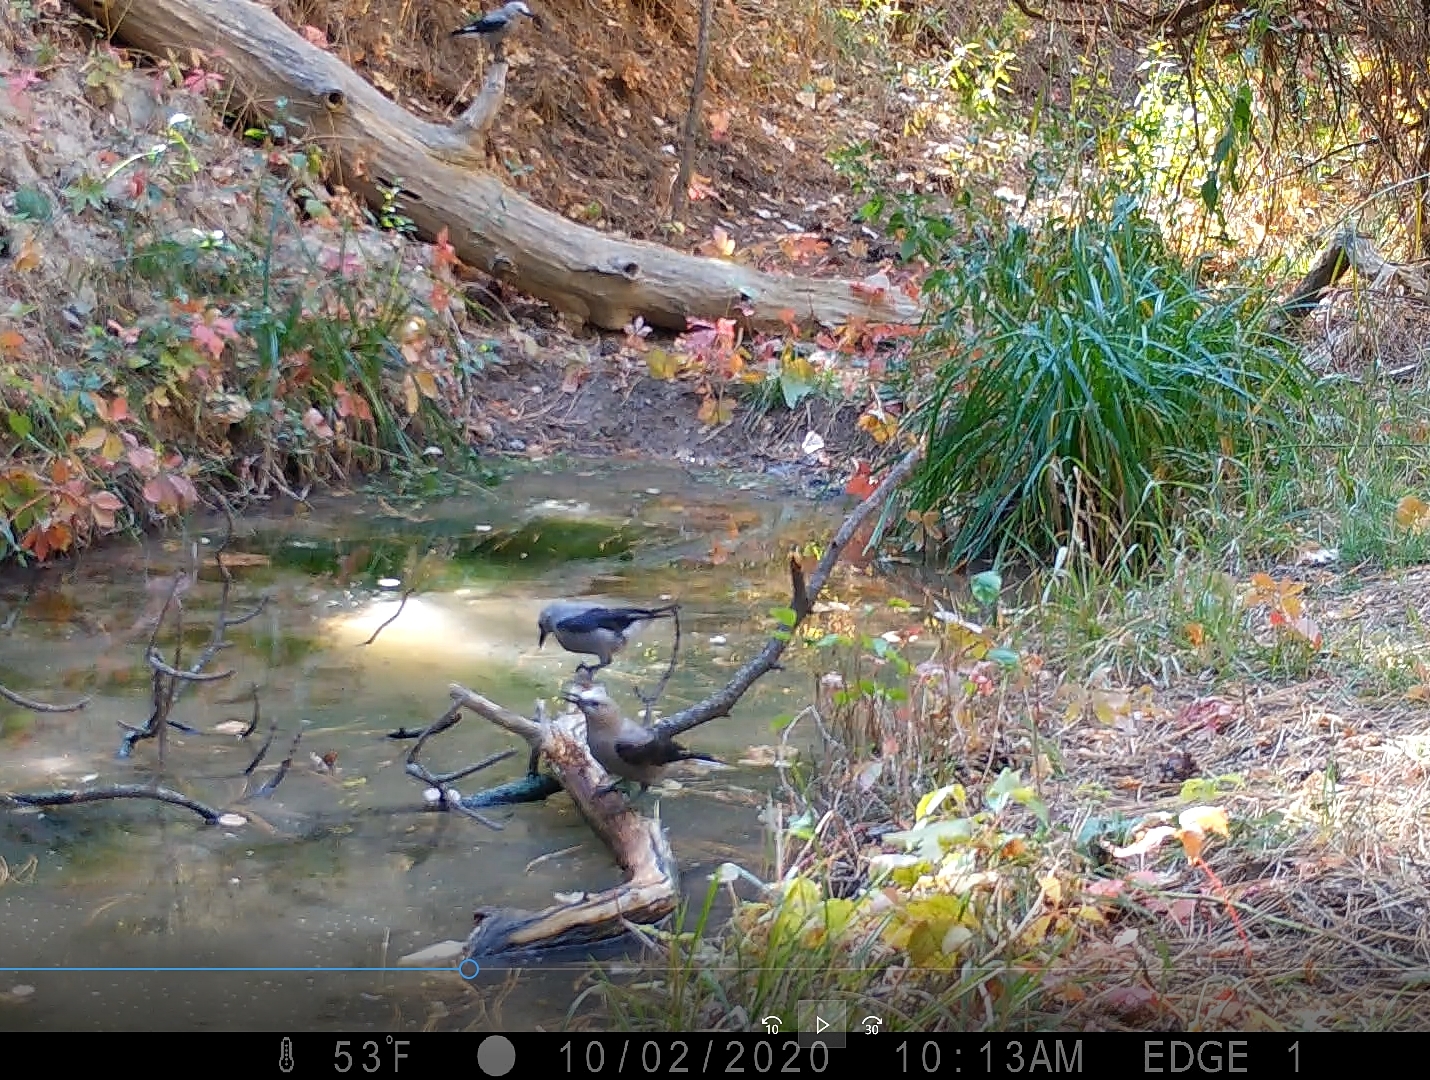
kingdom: Animalia
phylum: Chordata
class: Aves
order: Passeriformes
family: Corvidae
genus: Nucifraga
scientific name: Nucifraga columbiana
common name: Clark's nutcracker
